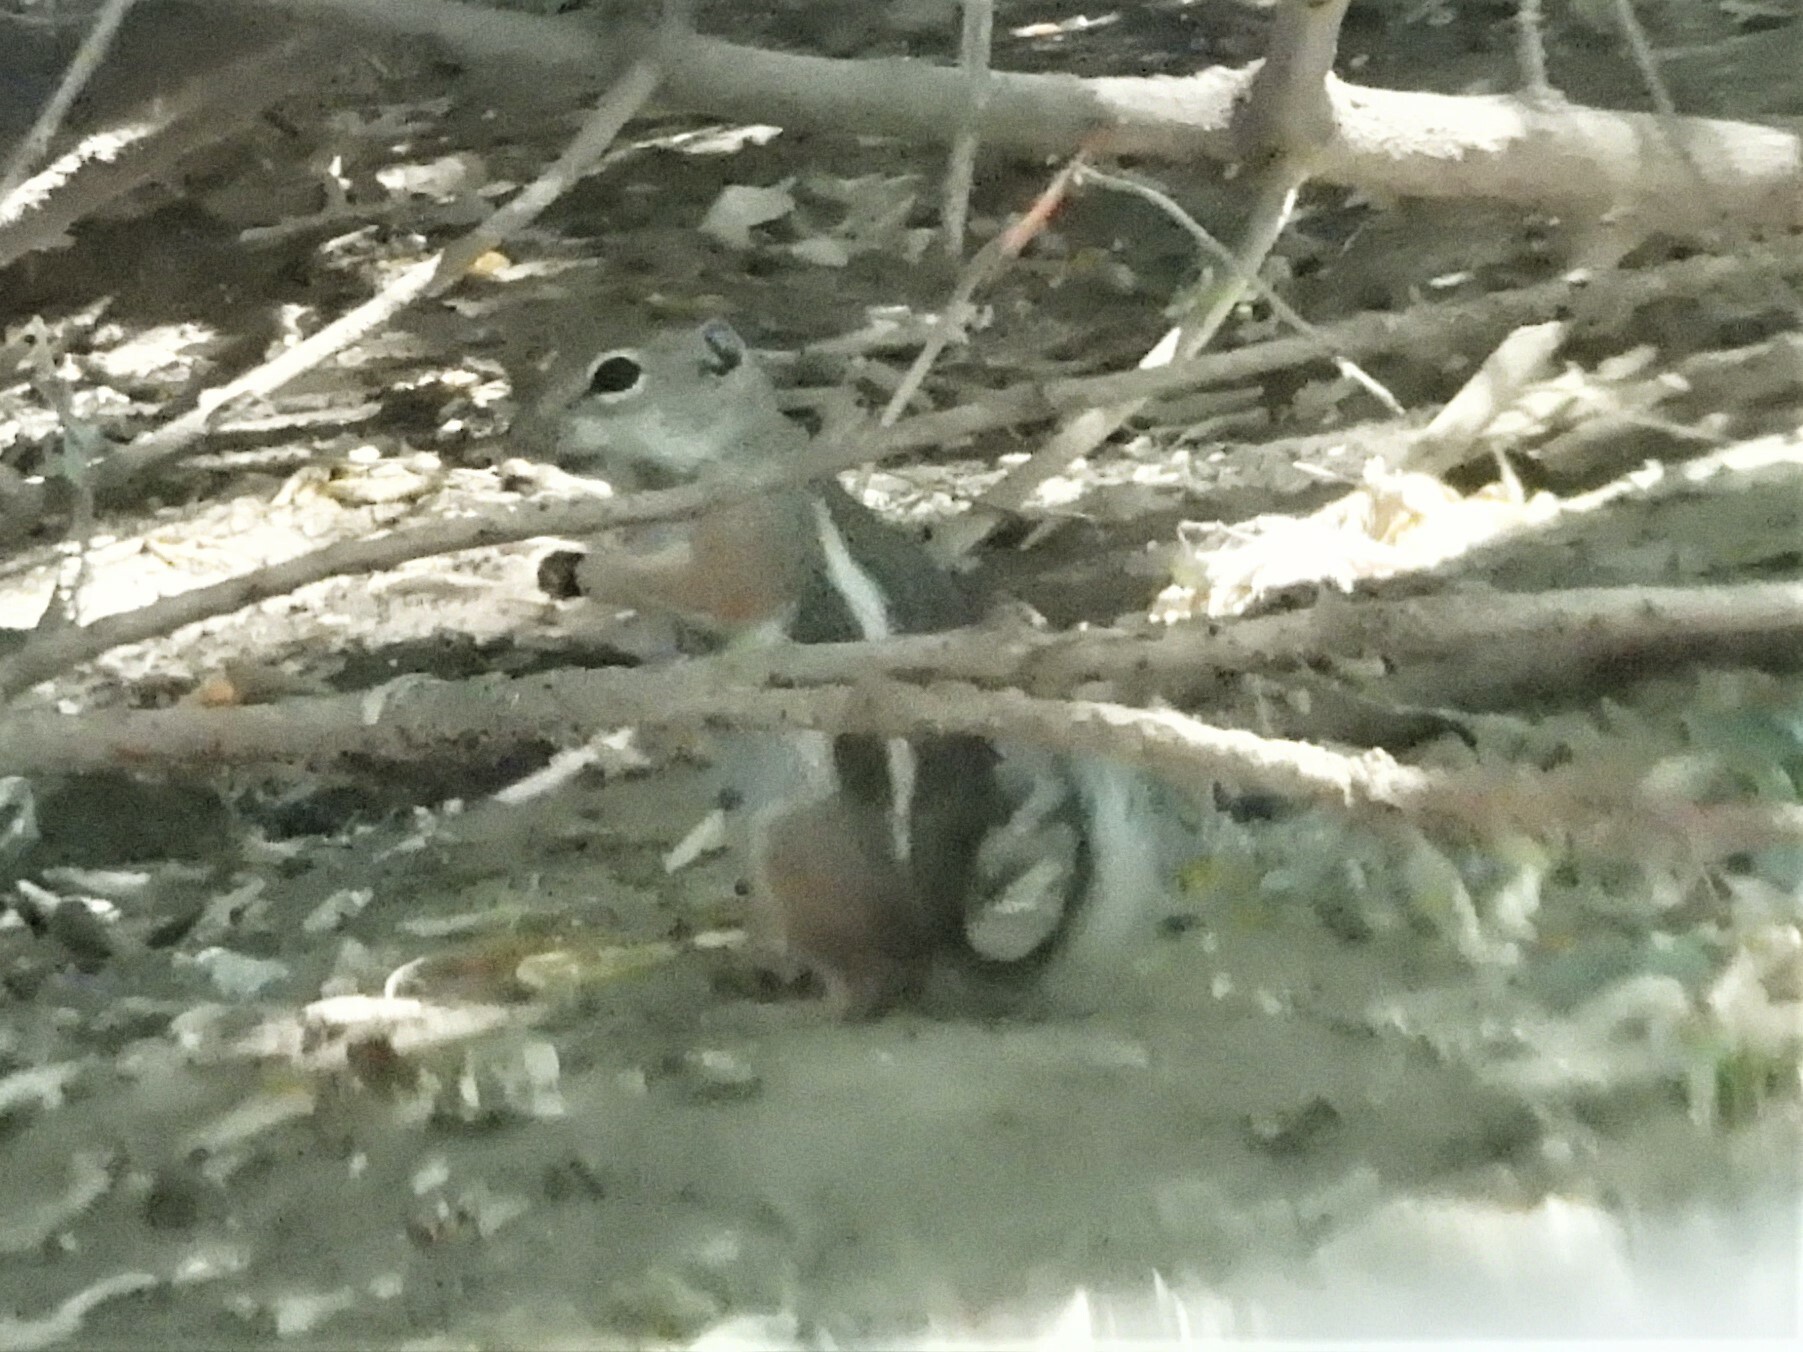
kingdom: Animalia
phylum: Chordata
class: Mammalia
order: Rodentia
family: Sciuridae
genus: Ammospermophilus
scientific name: Ammospermophilus leucurus
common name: White-tailed antelope squirrel
